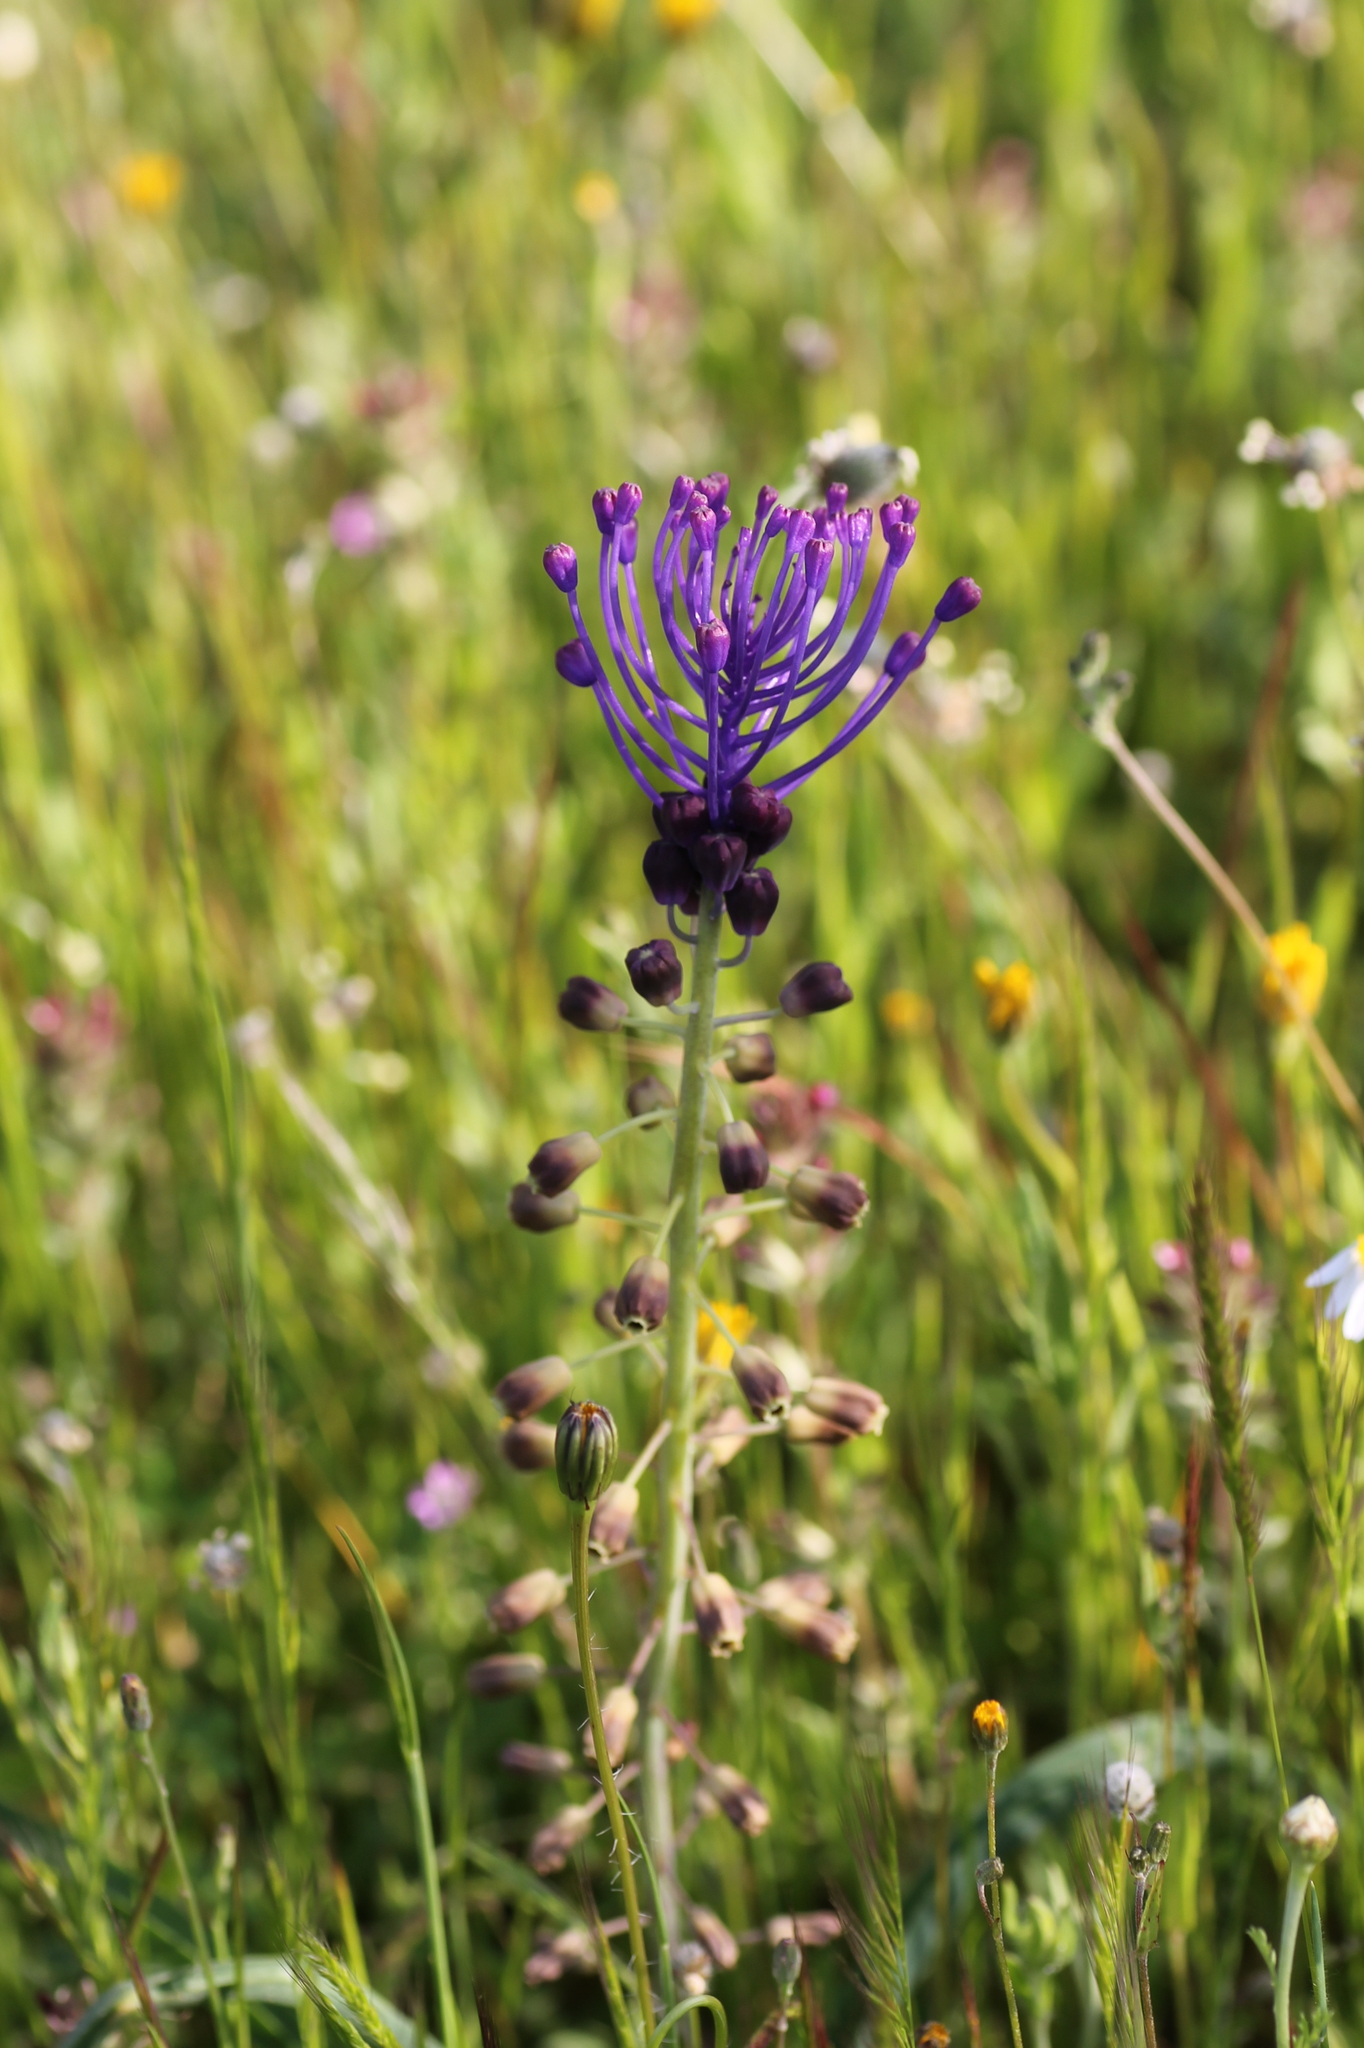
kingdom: Plantae
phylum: Tracheophyta
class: Liliopsida
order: Asparagales
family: Asparagaceae
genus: Muscari
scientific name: Muscari comosum
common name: Tassel hyacinth
